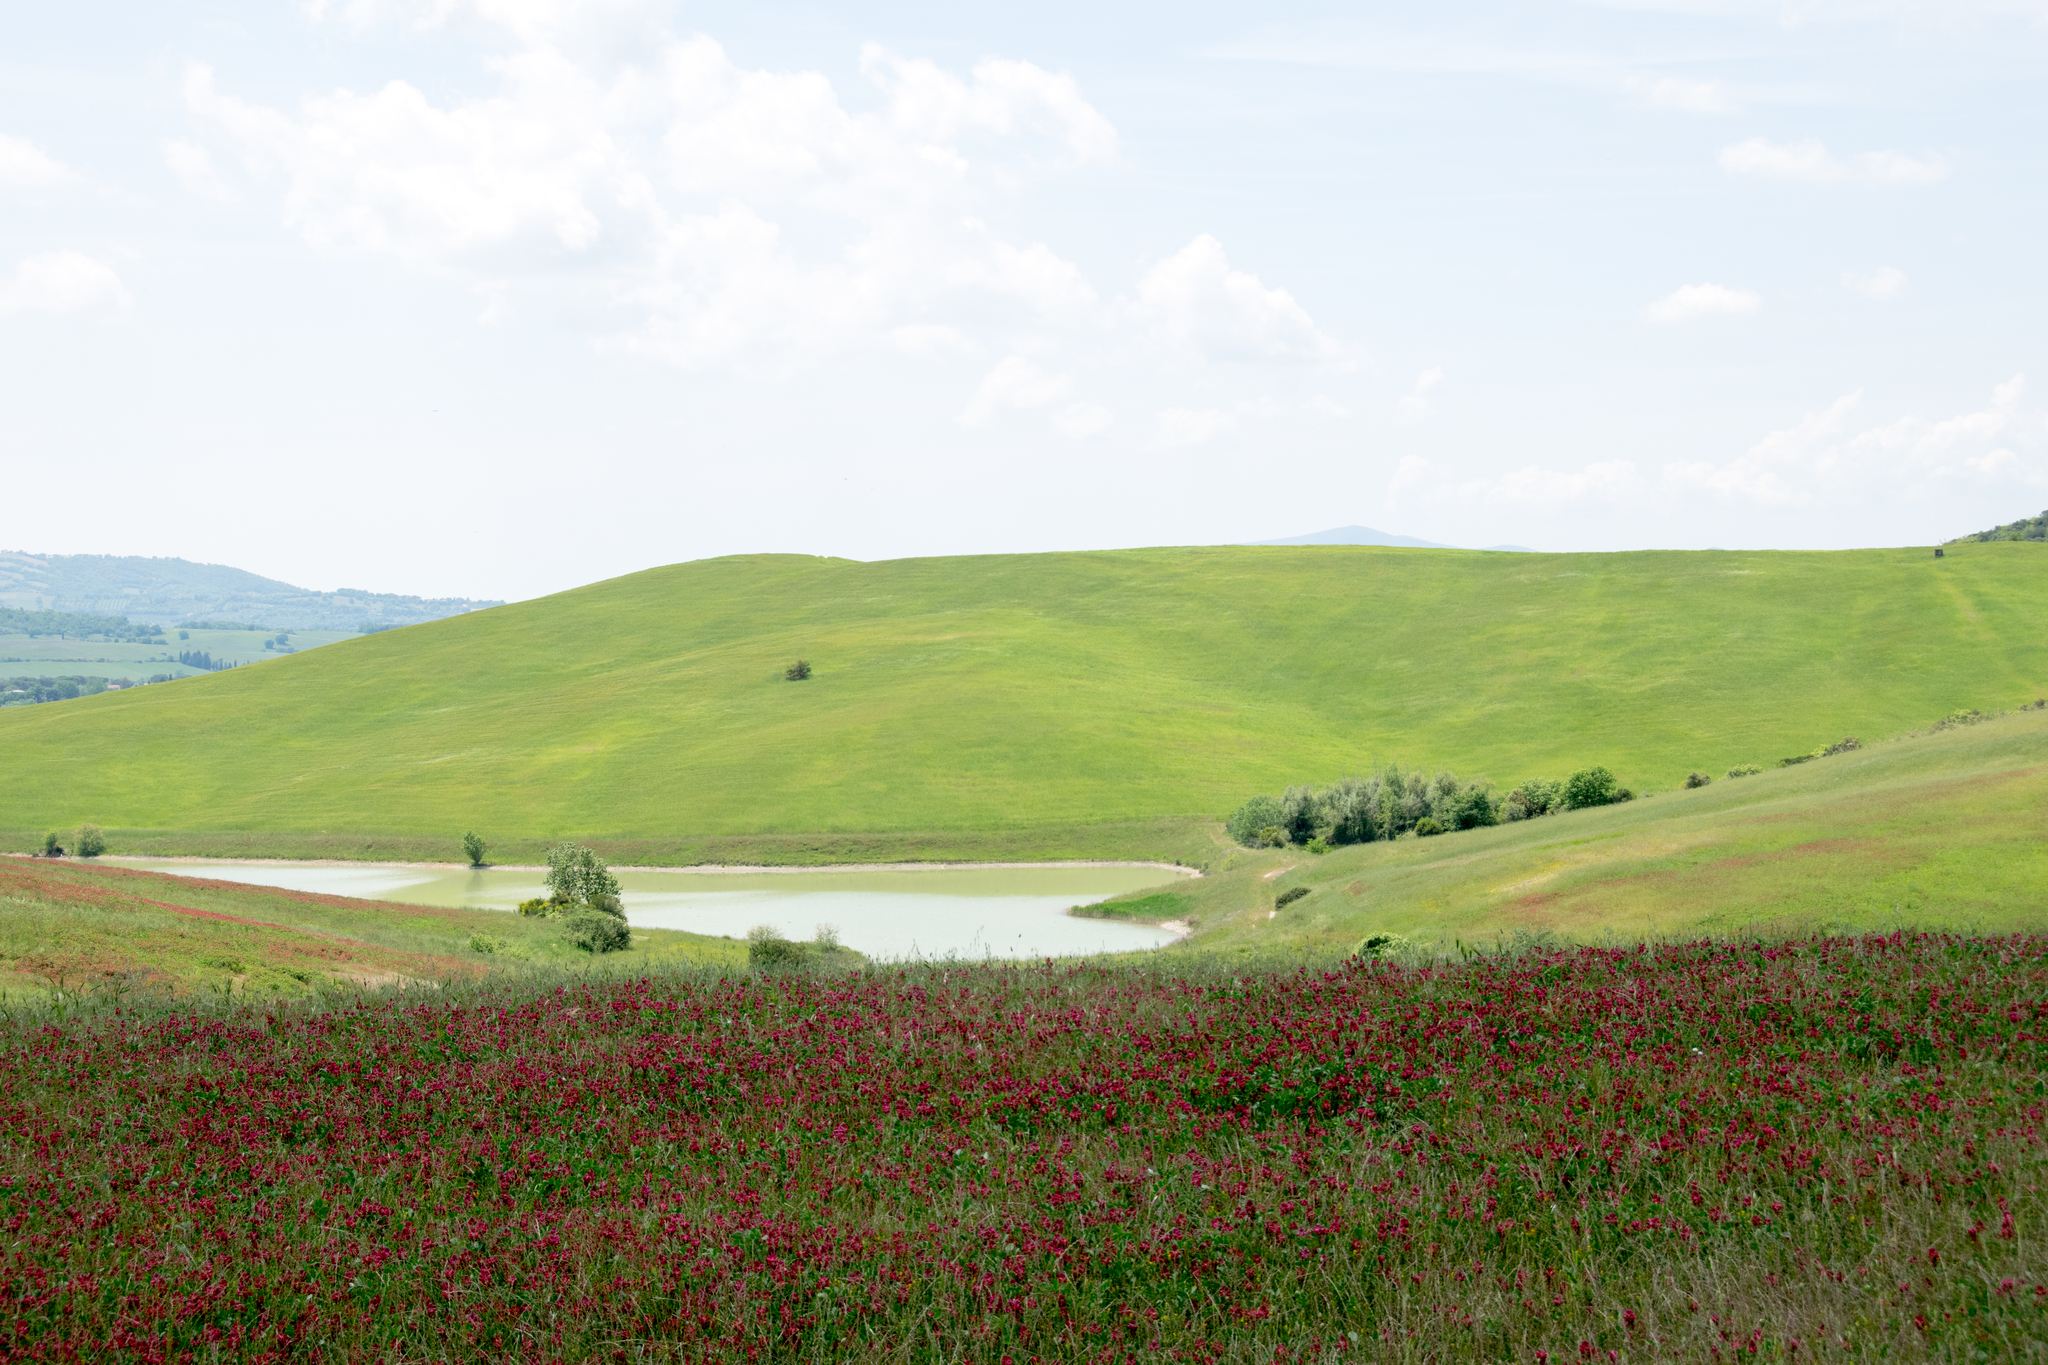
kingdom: Plantae
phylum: Tracheophyta
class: Magnoliopsida
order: Fabales
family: Fabaceae
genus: Sulla
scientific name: Sulla coronaria
